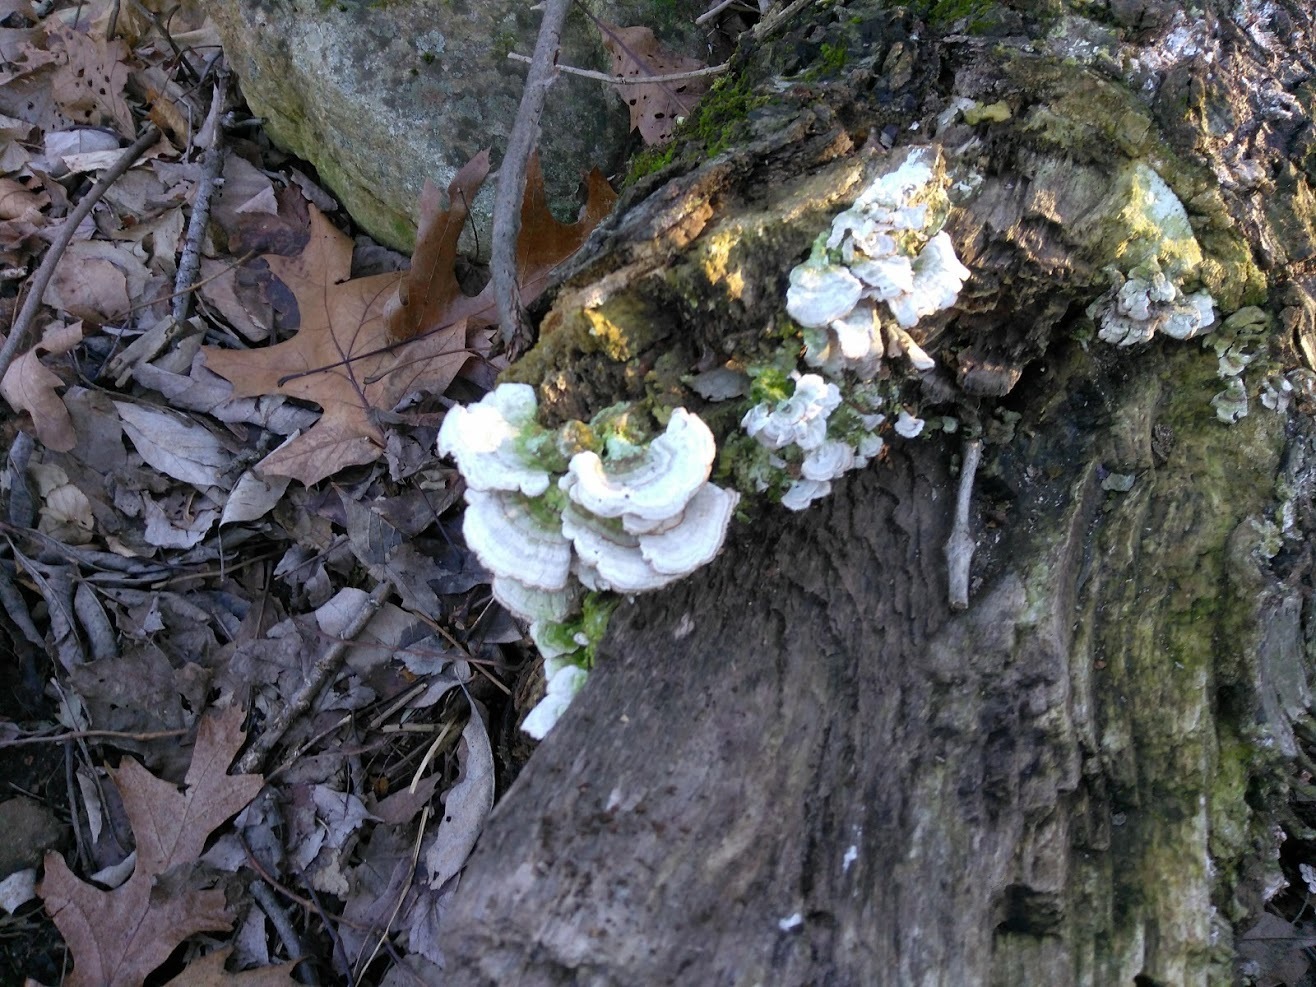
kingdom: Fungi
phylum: Basidiomycota
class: Agaricomycetes
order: Hymenochaetales
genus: Trichaptum
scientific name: Trichaptum abietinum
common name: Purplepore bracket
